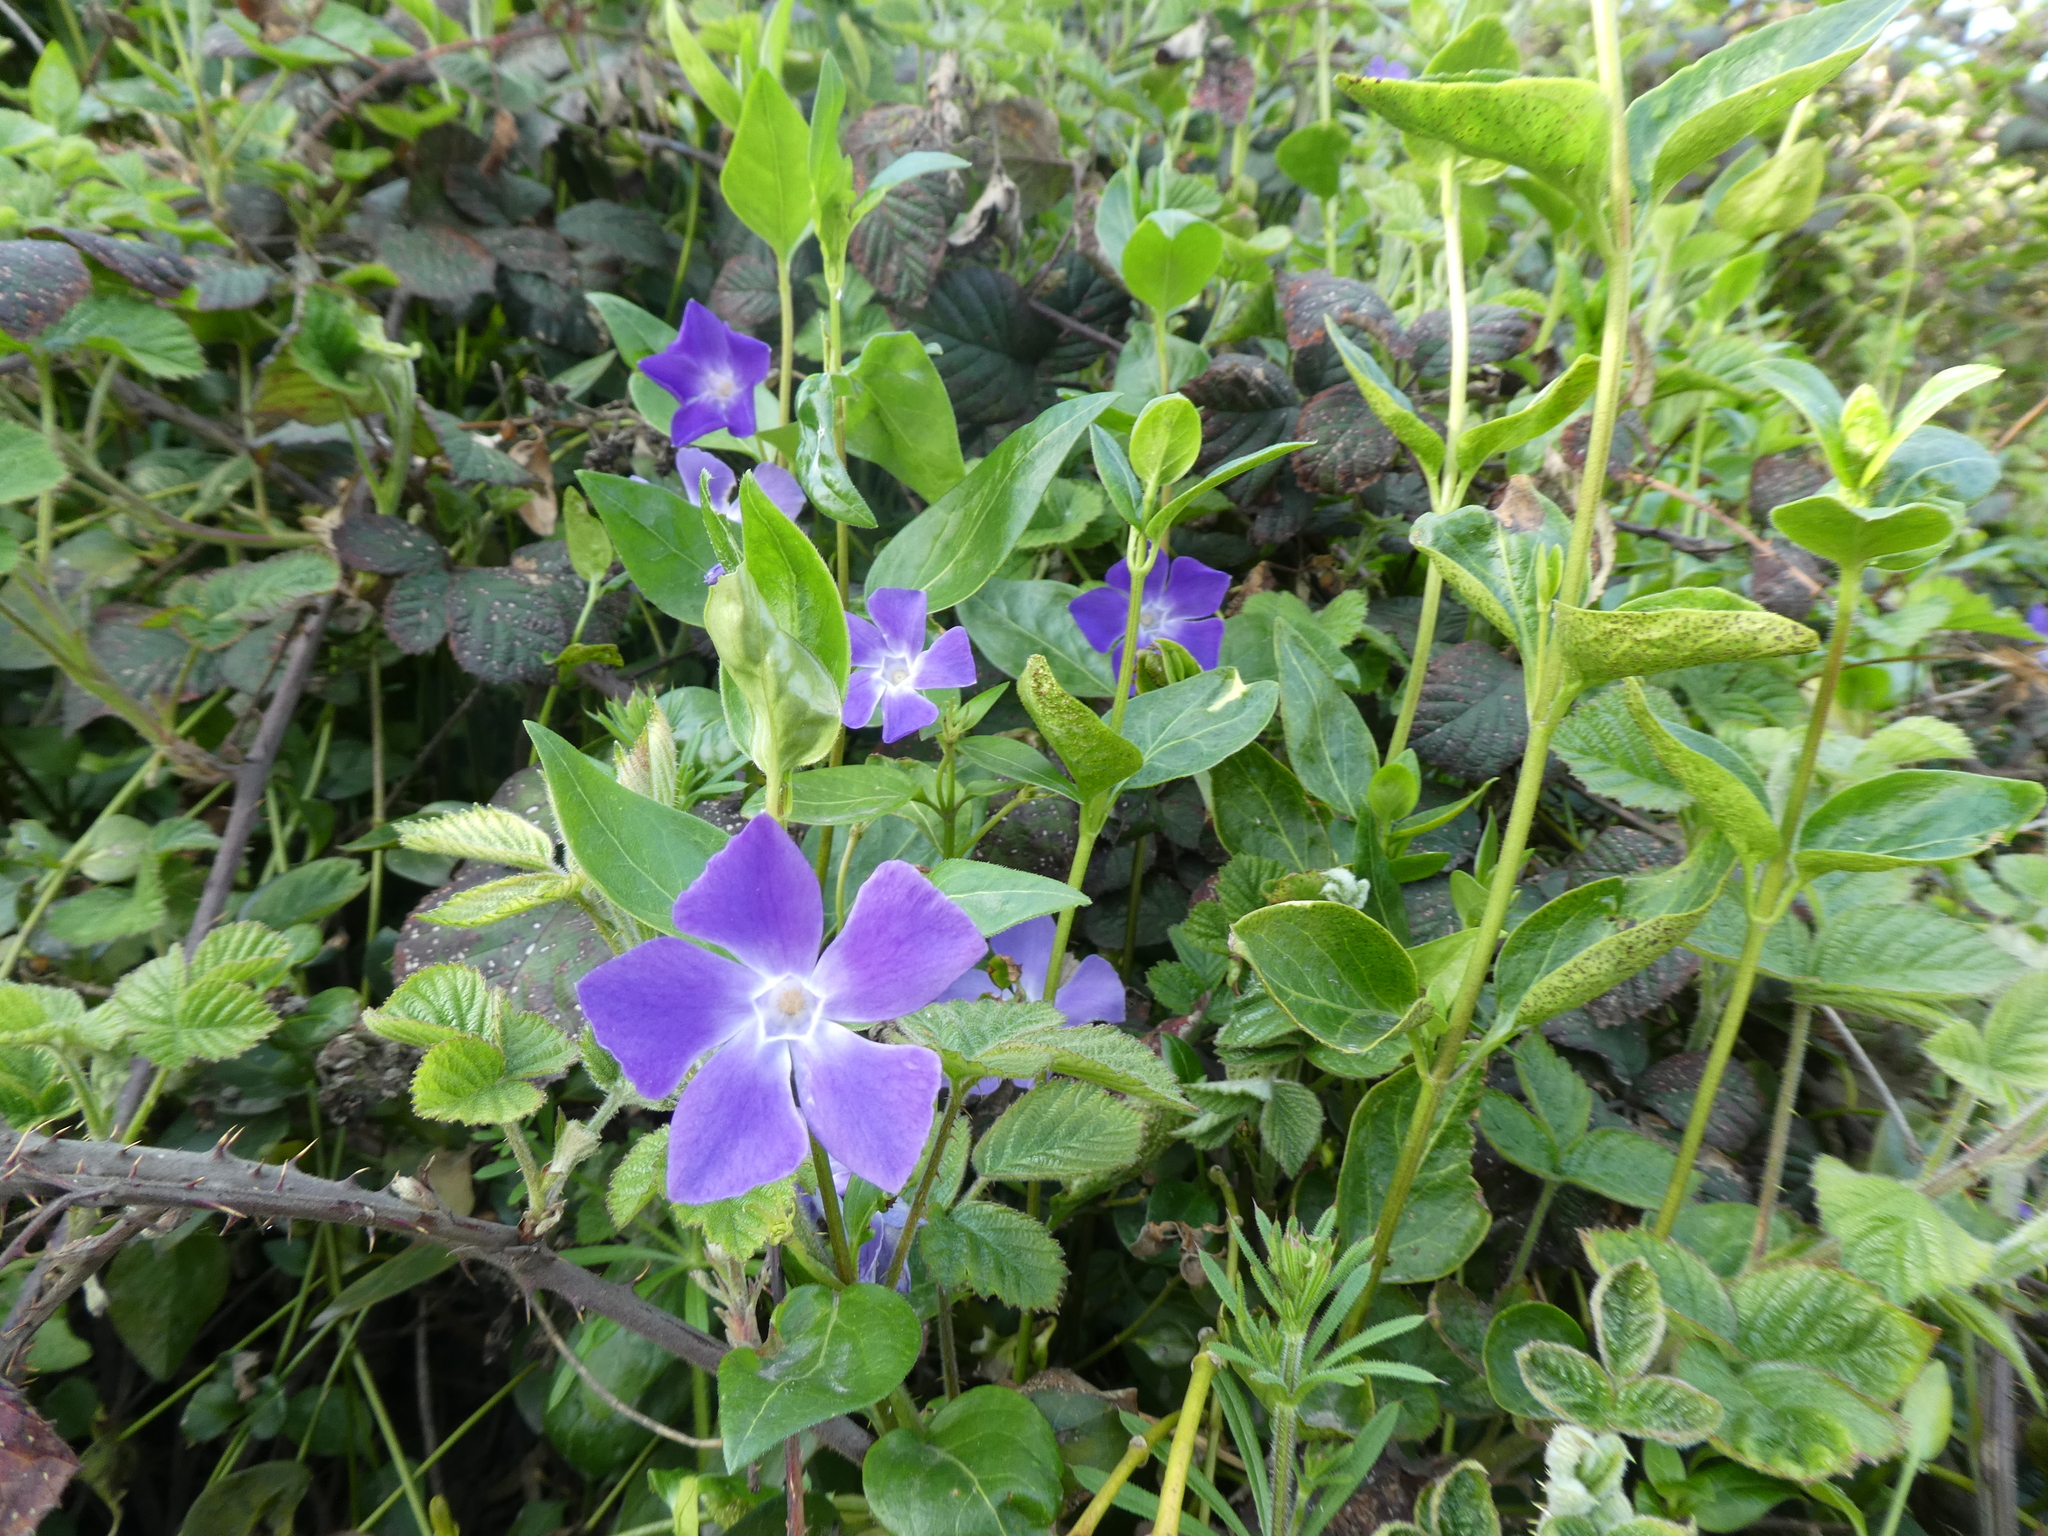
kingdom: Plantae
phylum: Tracheophyta
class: Magnoliopsida
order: Gentianales
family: Apocynaceae
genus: Vinca
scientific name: Vinca major
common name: Greater periwinkle
